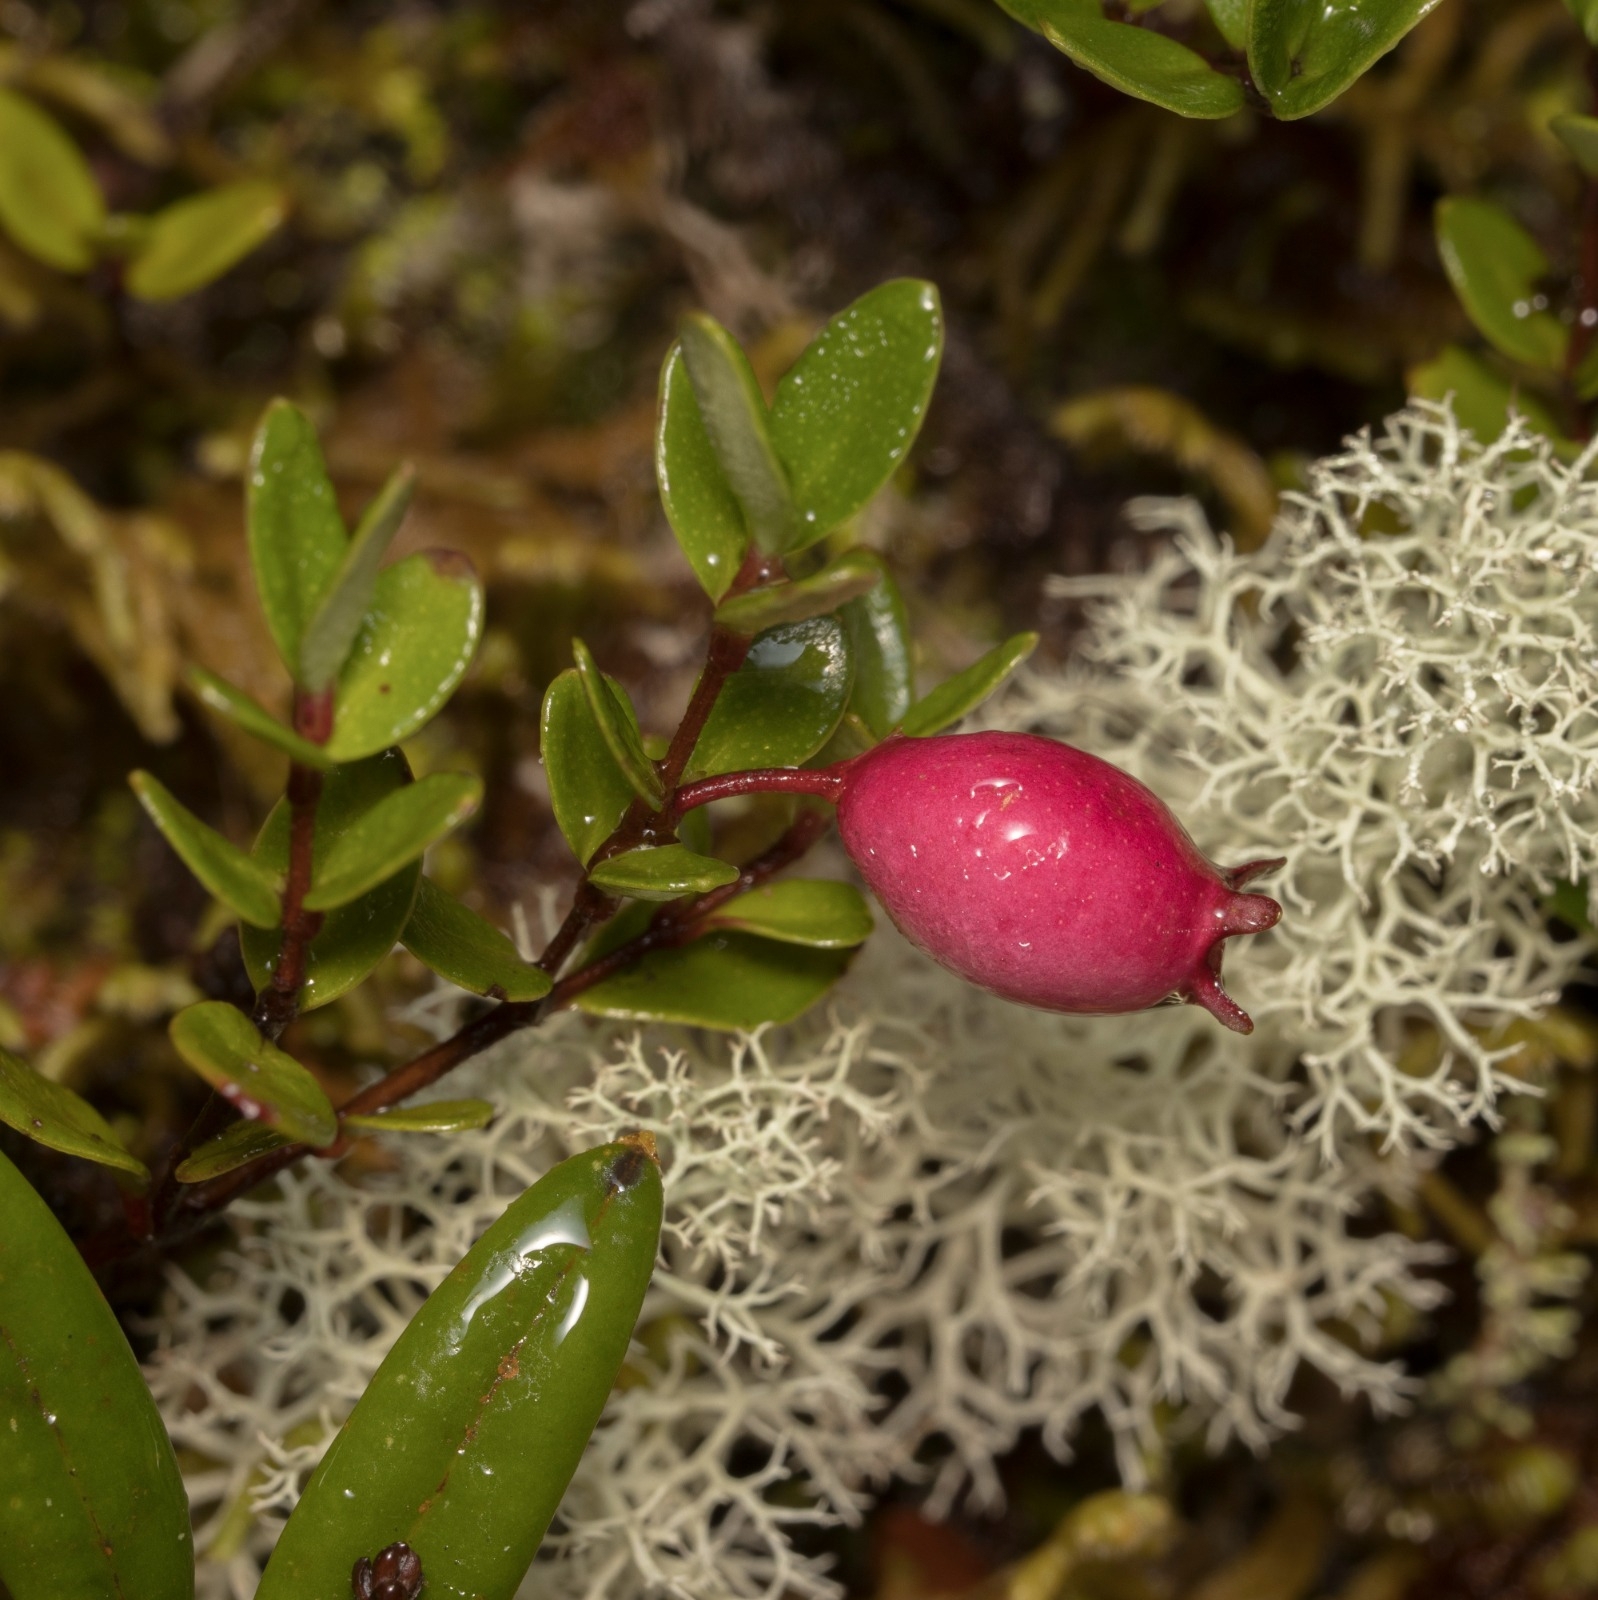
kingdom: Plantae
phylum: Tracheophyta
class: Magnoliopsida
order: Myrtales
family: Myrtaceae
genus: Myrteola
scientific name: Myrteola nummularia
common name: Cranberry-myrtle
